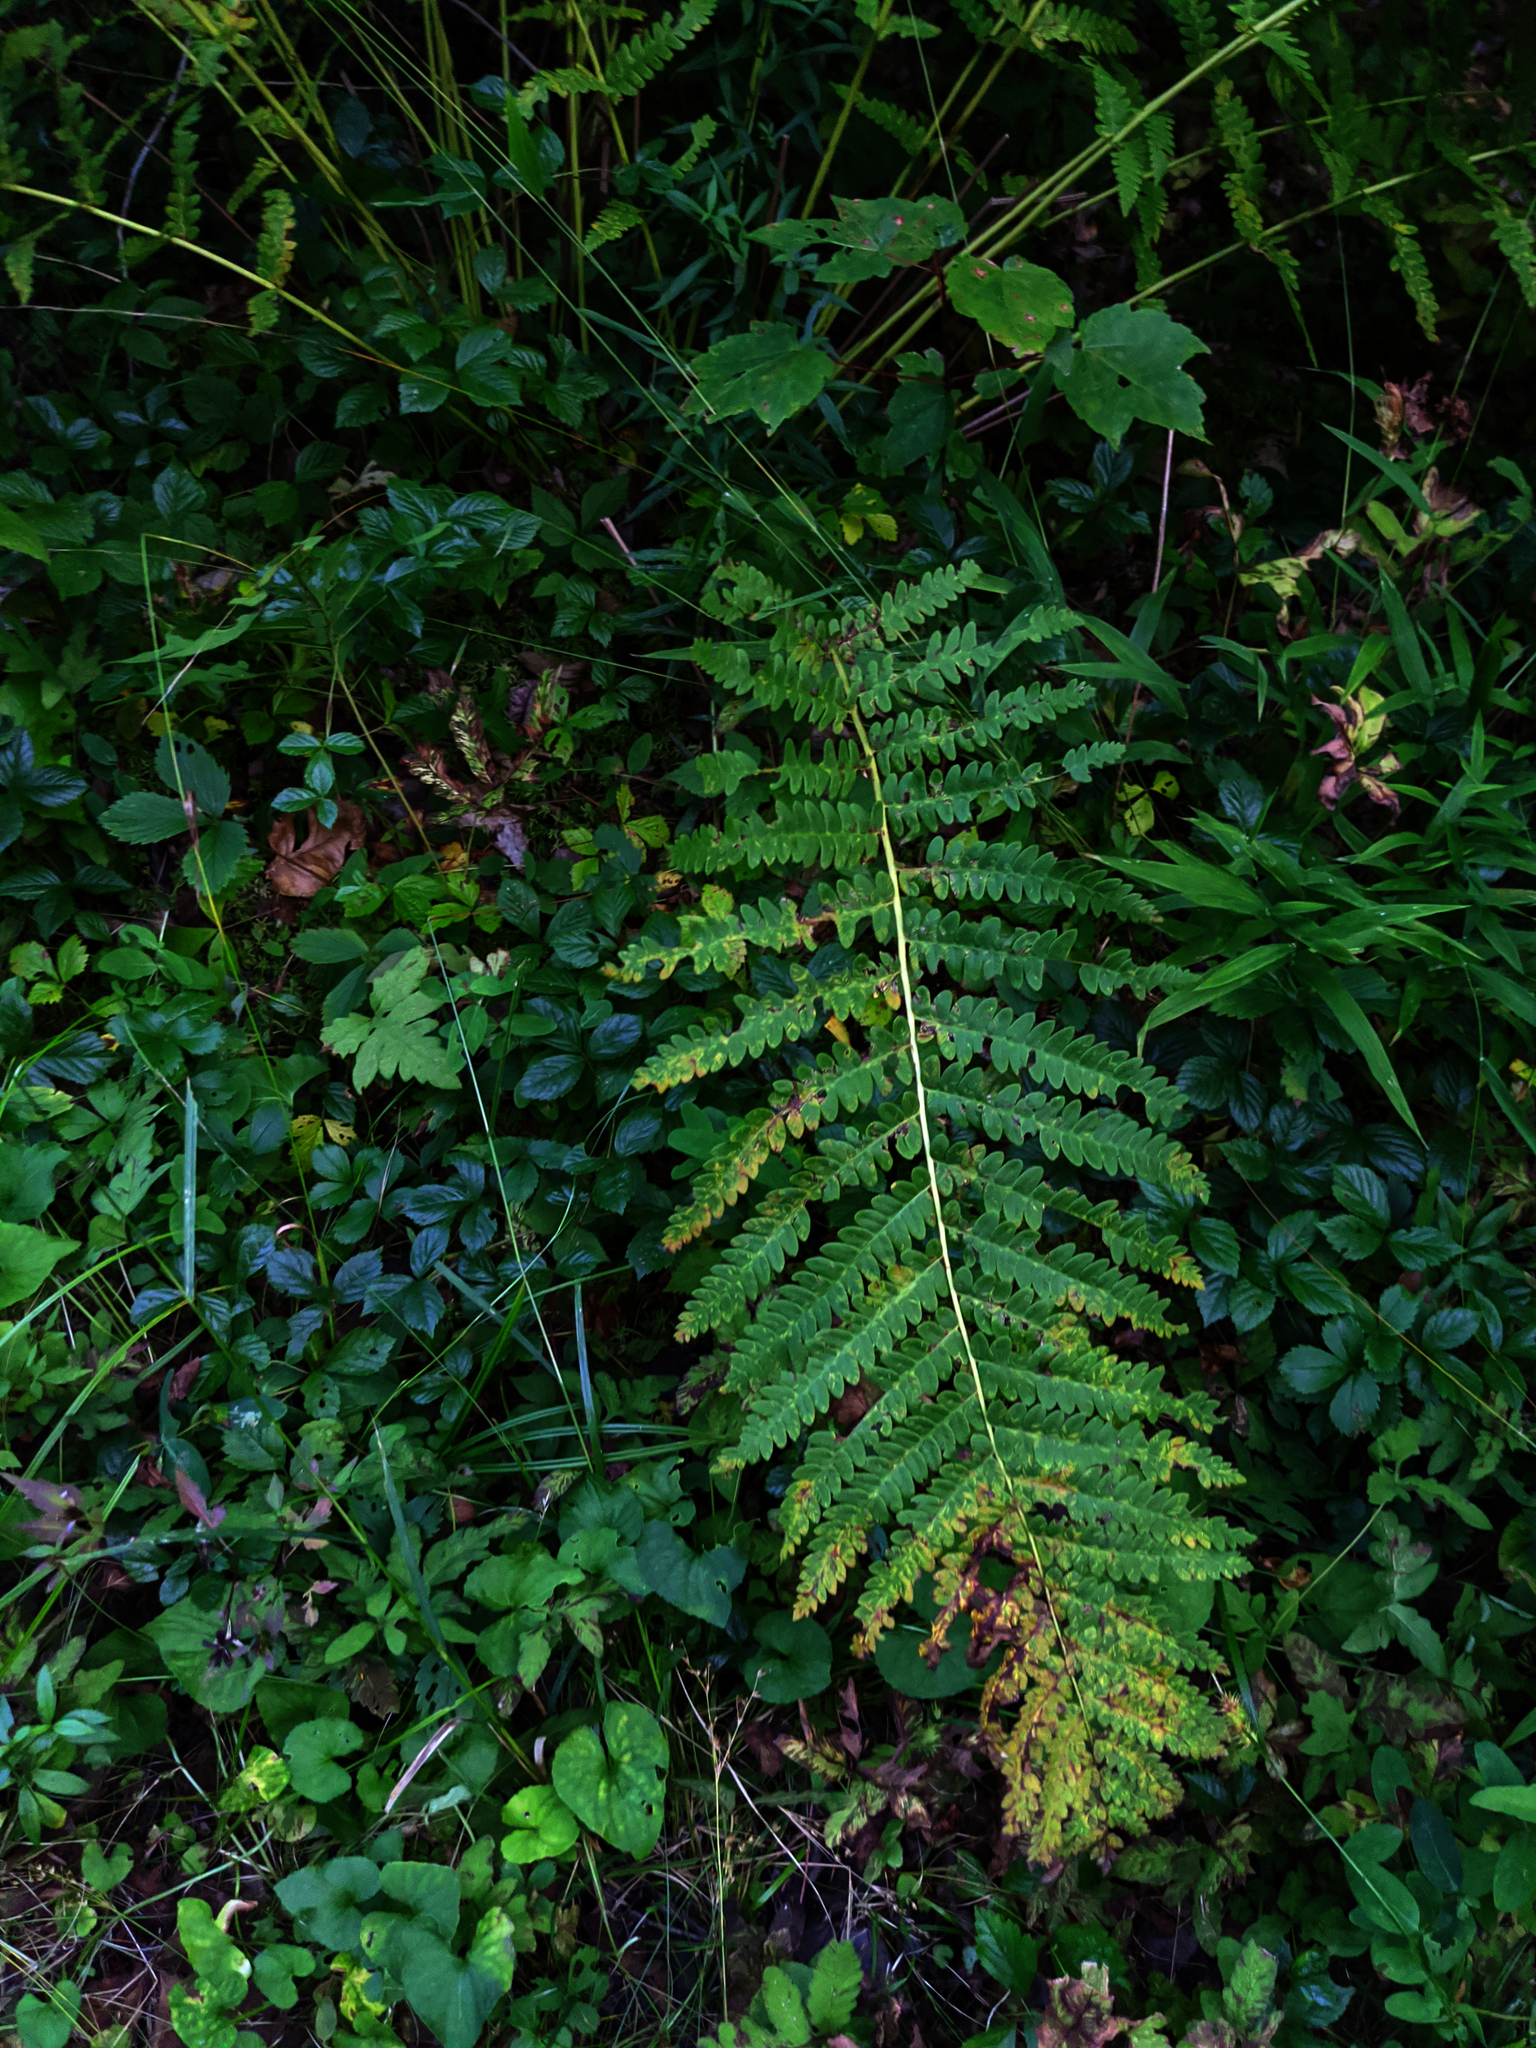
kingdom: Plantae
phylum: Tracheophyta
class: Polypodiopsida
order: Osmundales
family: Osmundaceae
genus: Claytosmunda
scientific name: Claytosmunda claytoniana
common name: Clayton's fern
